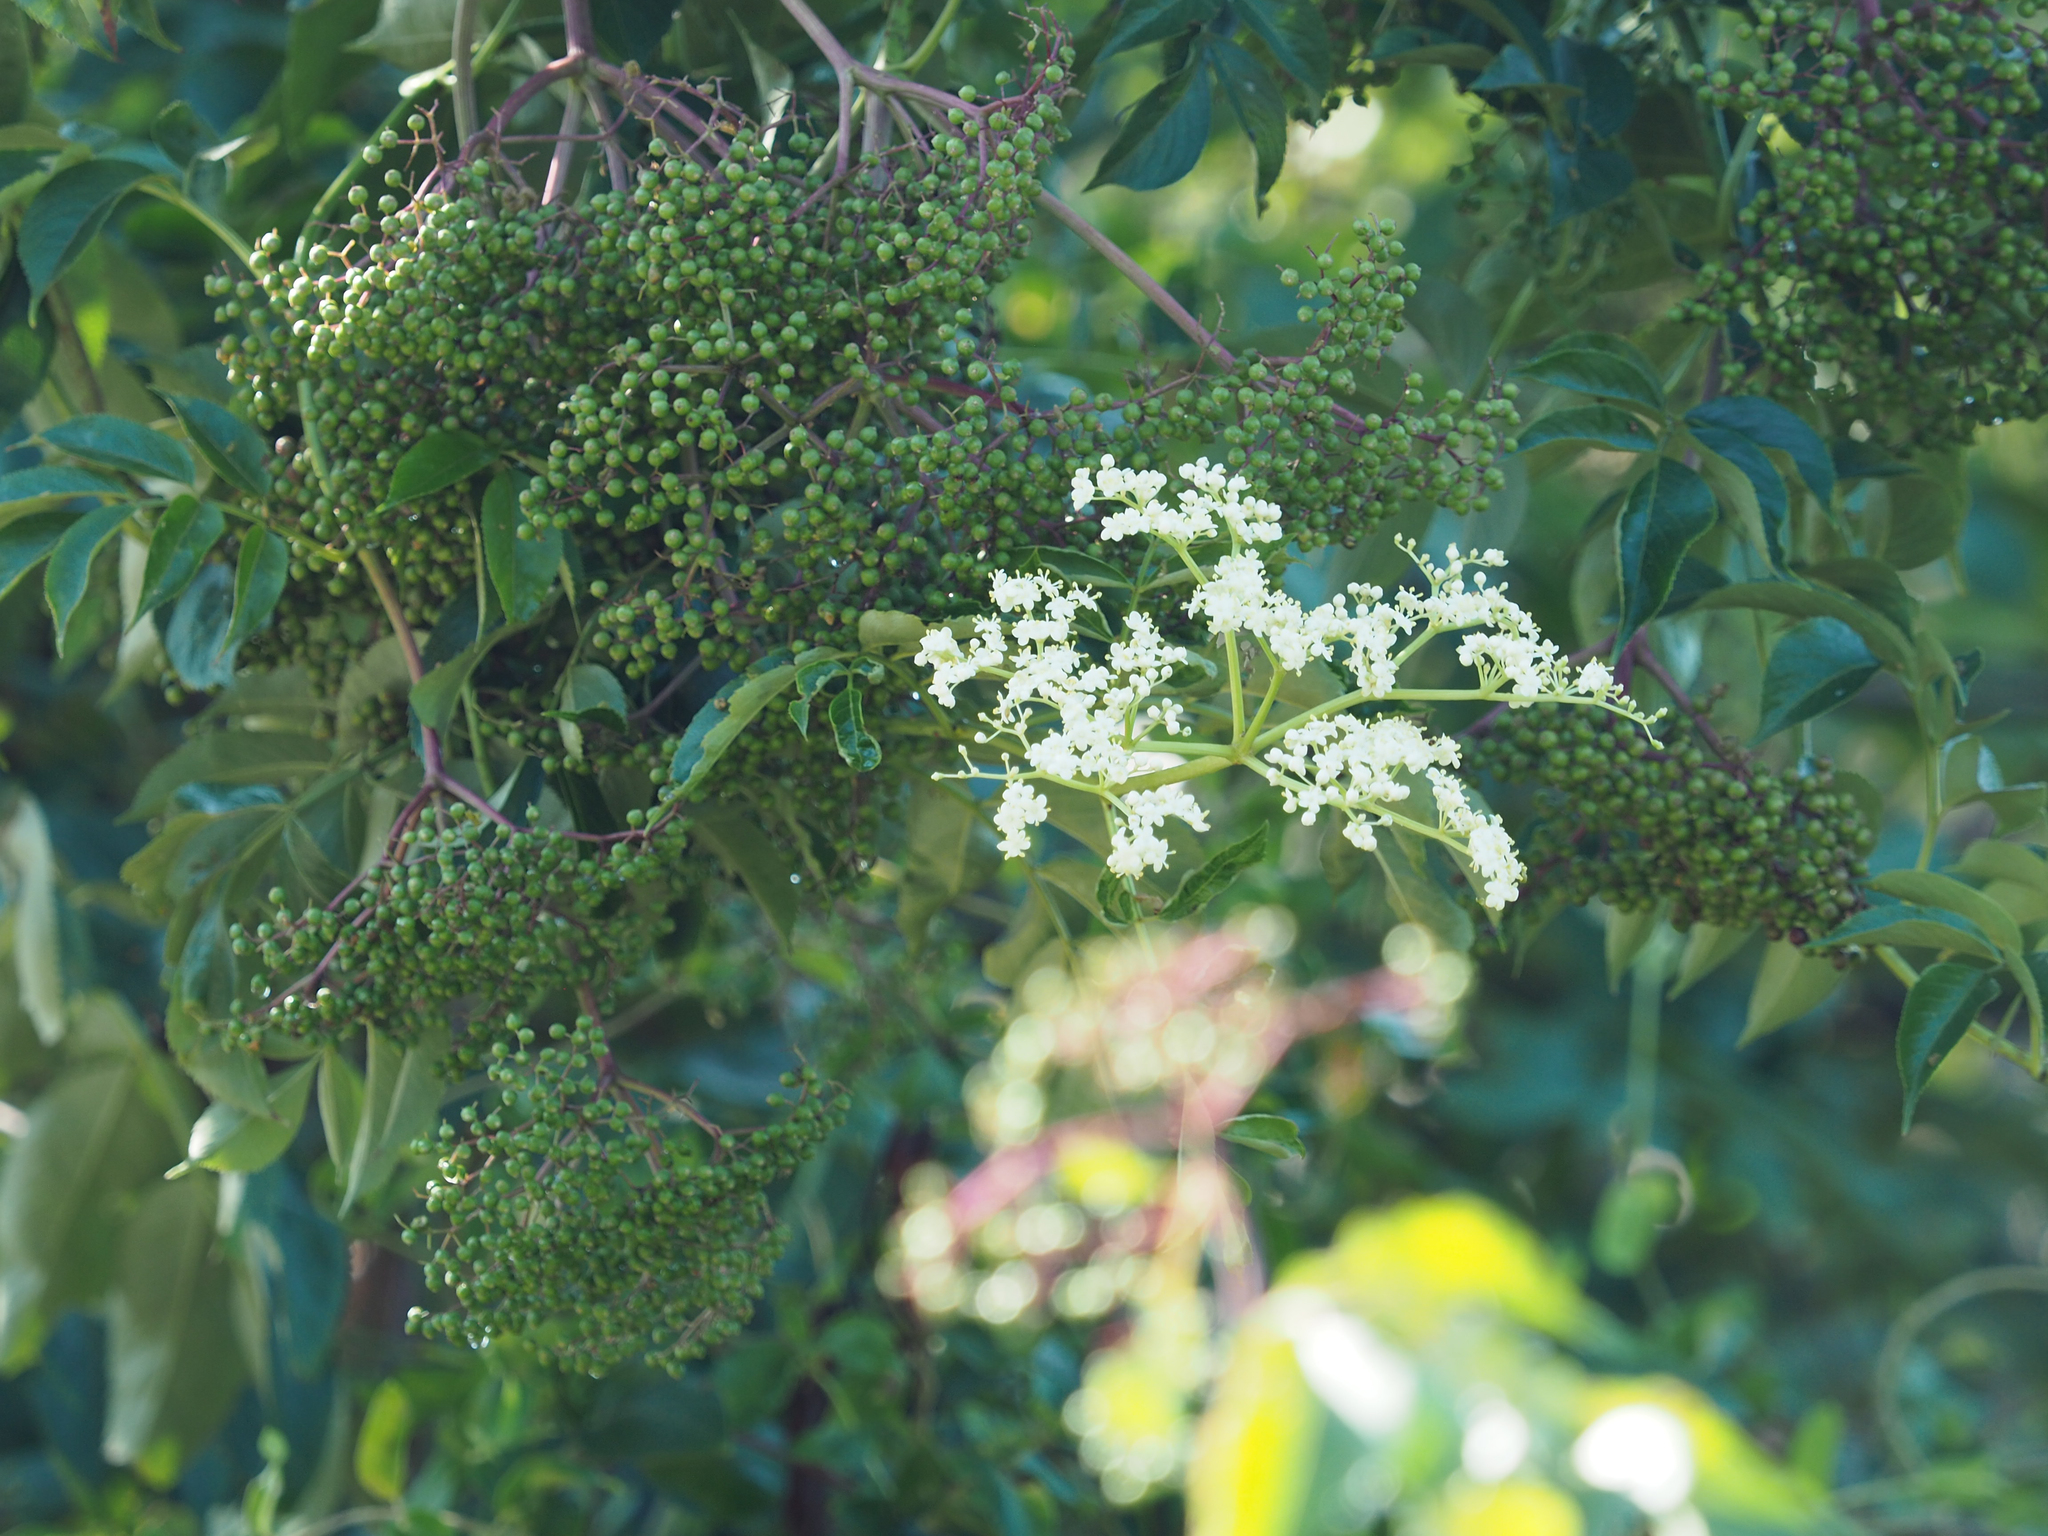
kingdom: Plantae
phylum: Tracheophyta
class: Magnoliopsida
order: Dipsacales
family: Viburnaceae
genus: Sambucus
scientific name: Sambucus canadensis
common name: American elder
